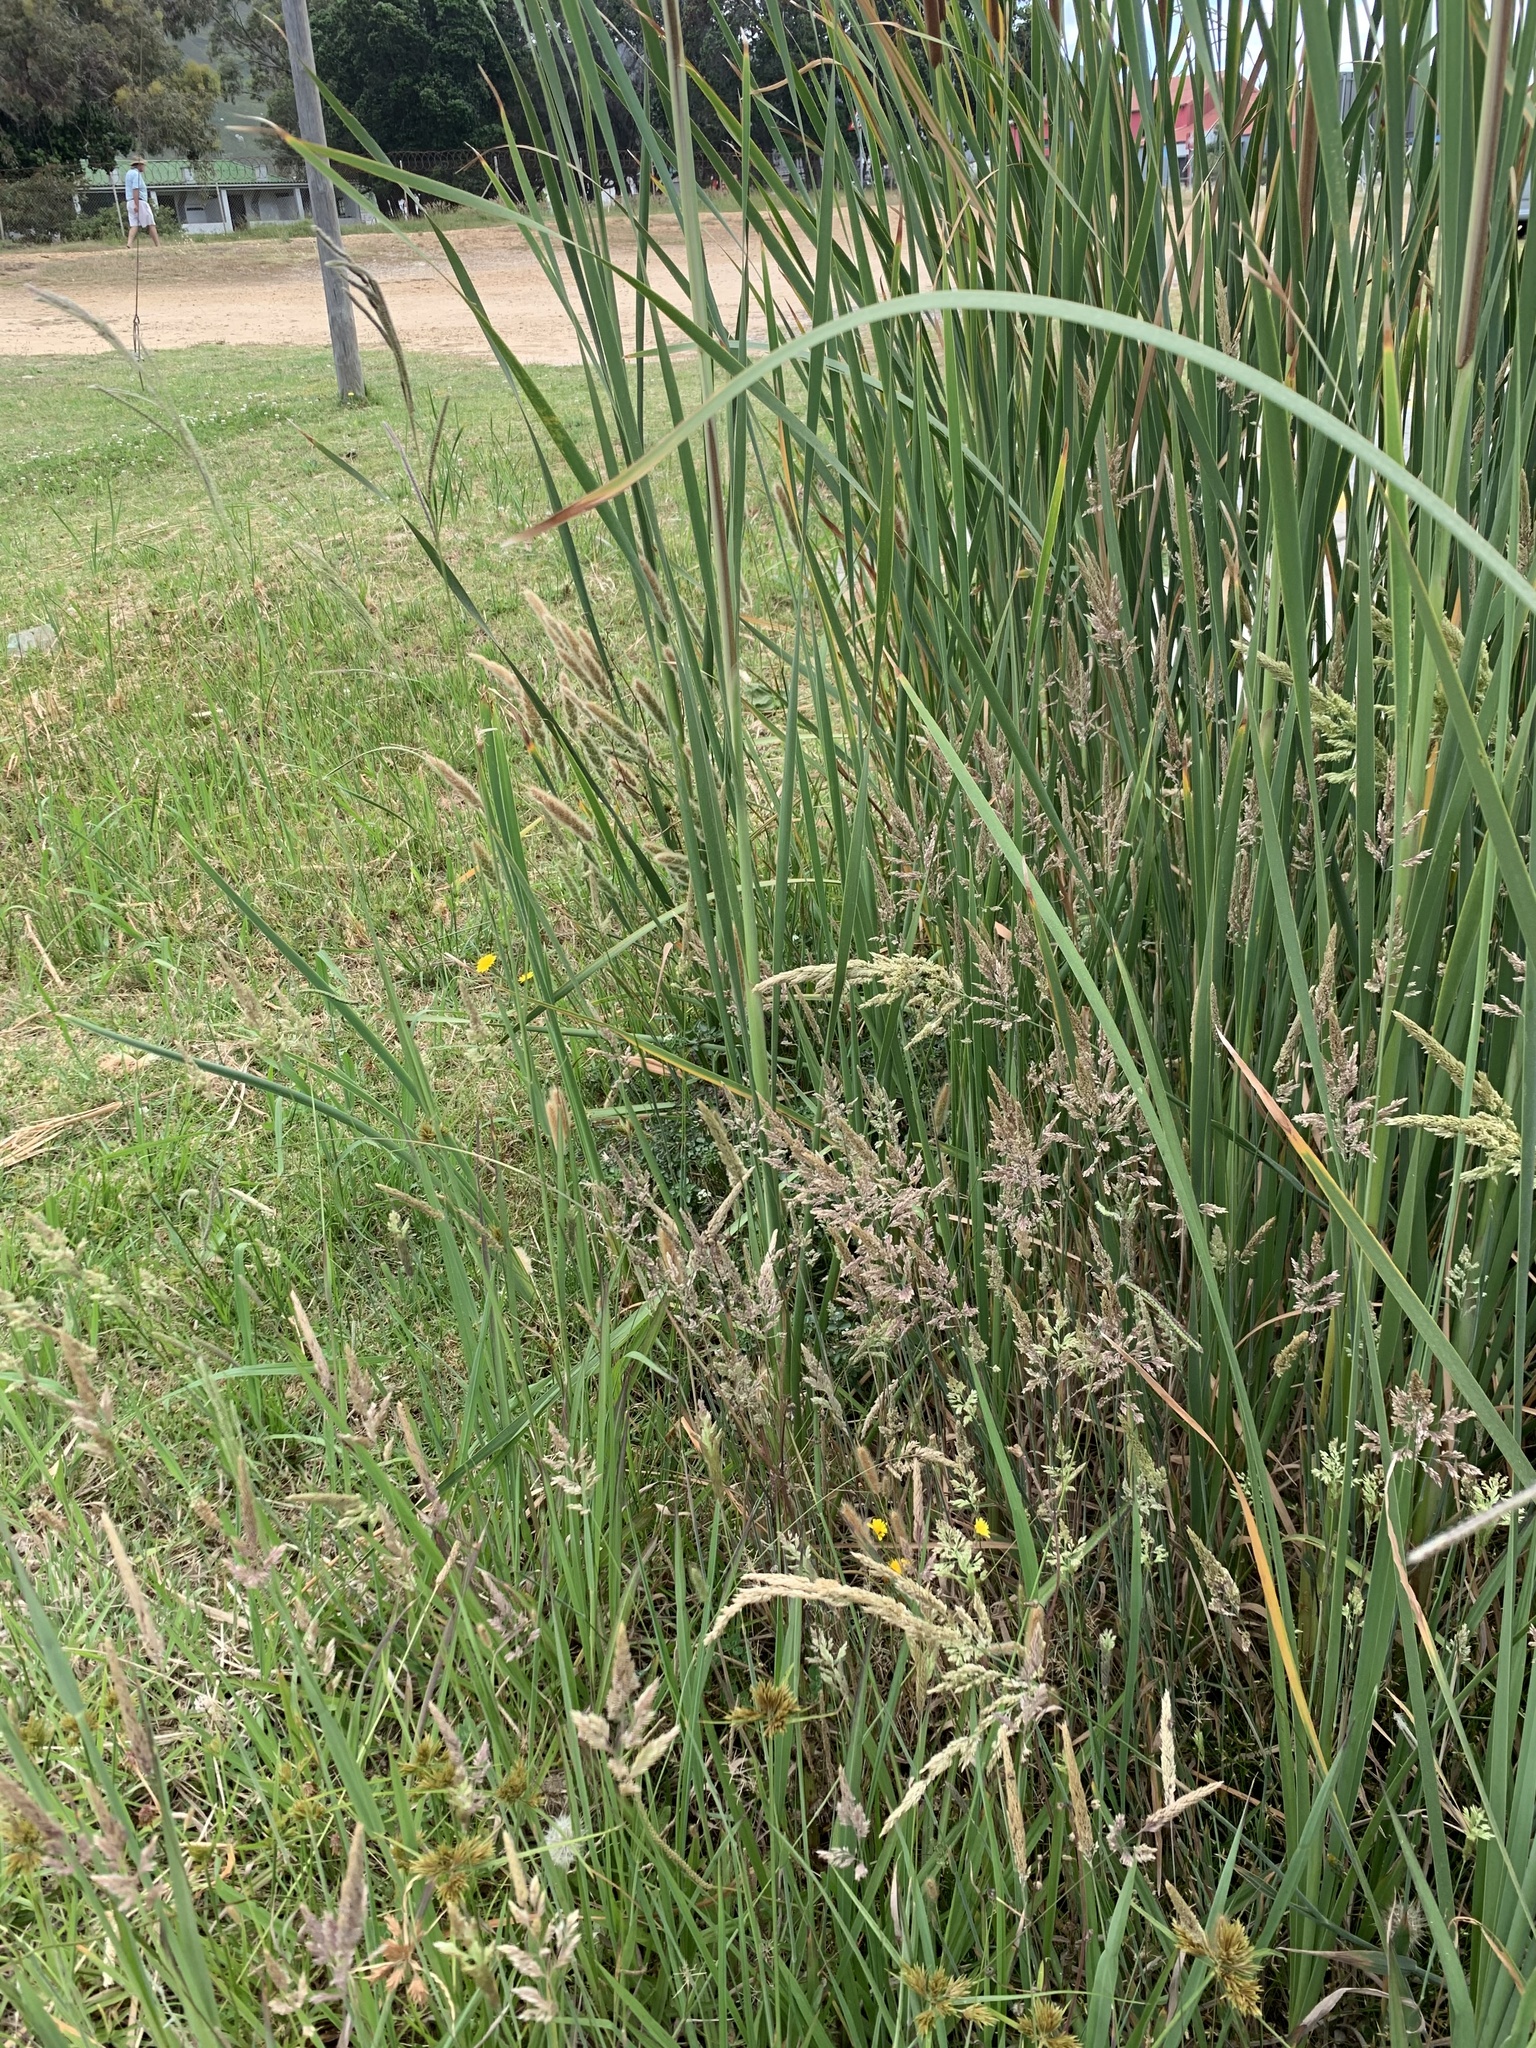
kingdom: Plantae
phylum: Tracheophyta
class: Liliopsida
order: Poales
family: Poaceae
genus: Holcus
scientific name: Holcus lanatus
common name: Yorkshire-fog
